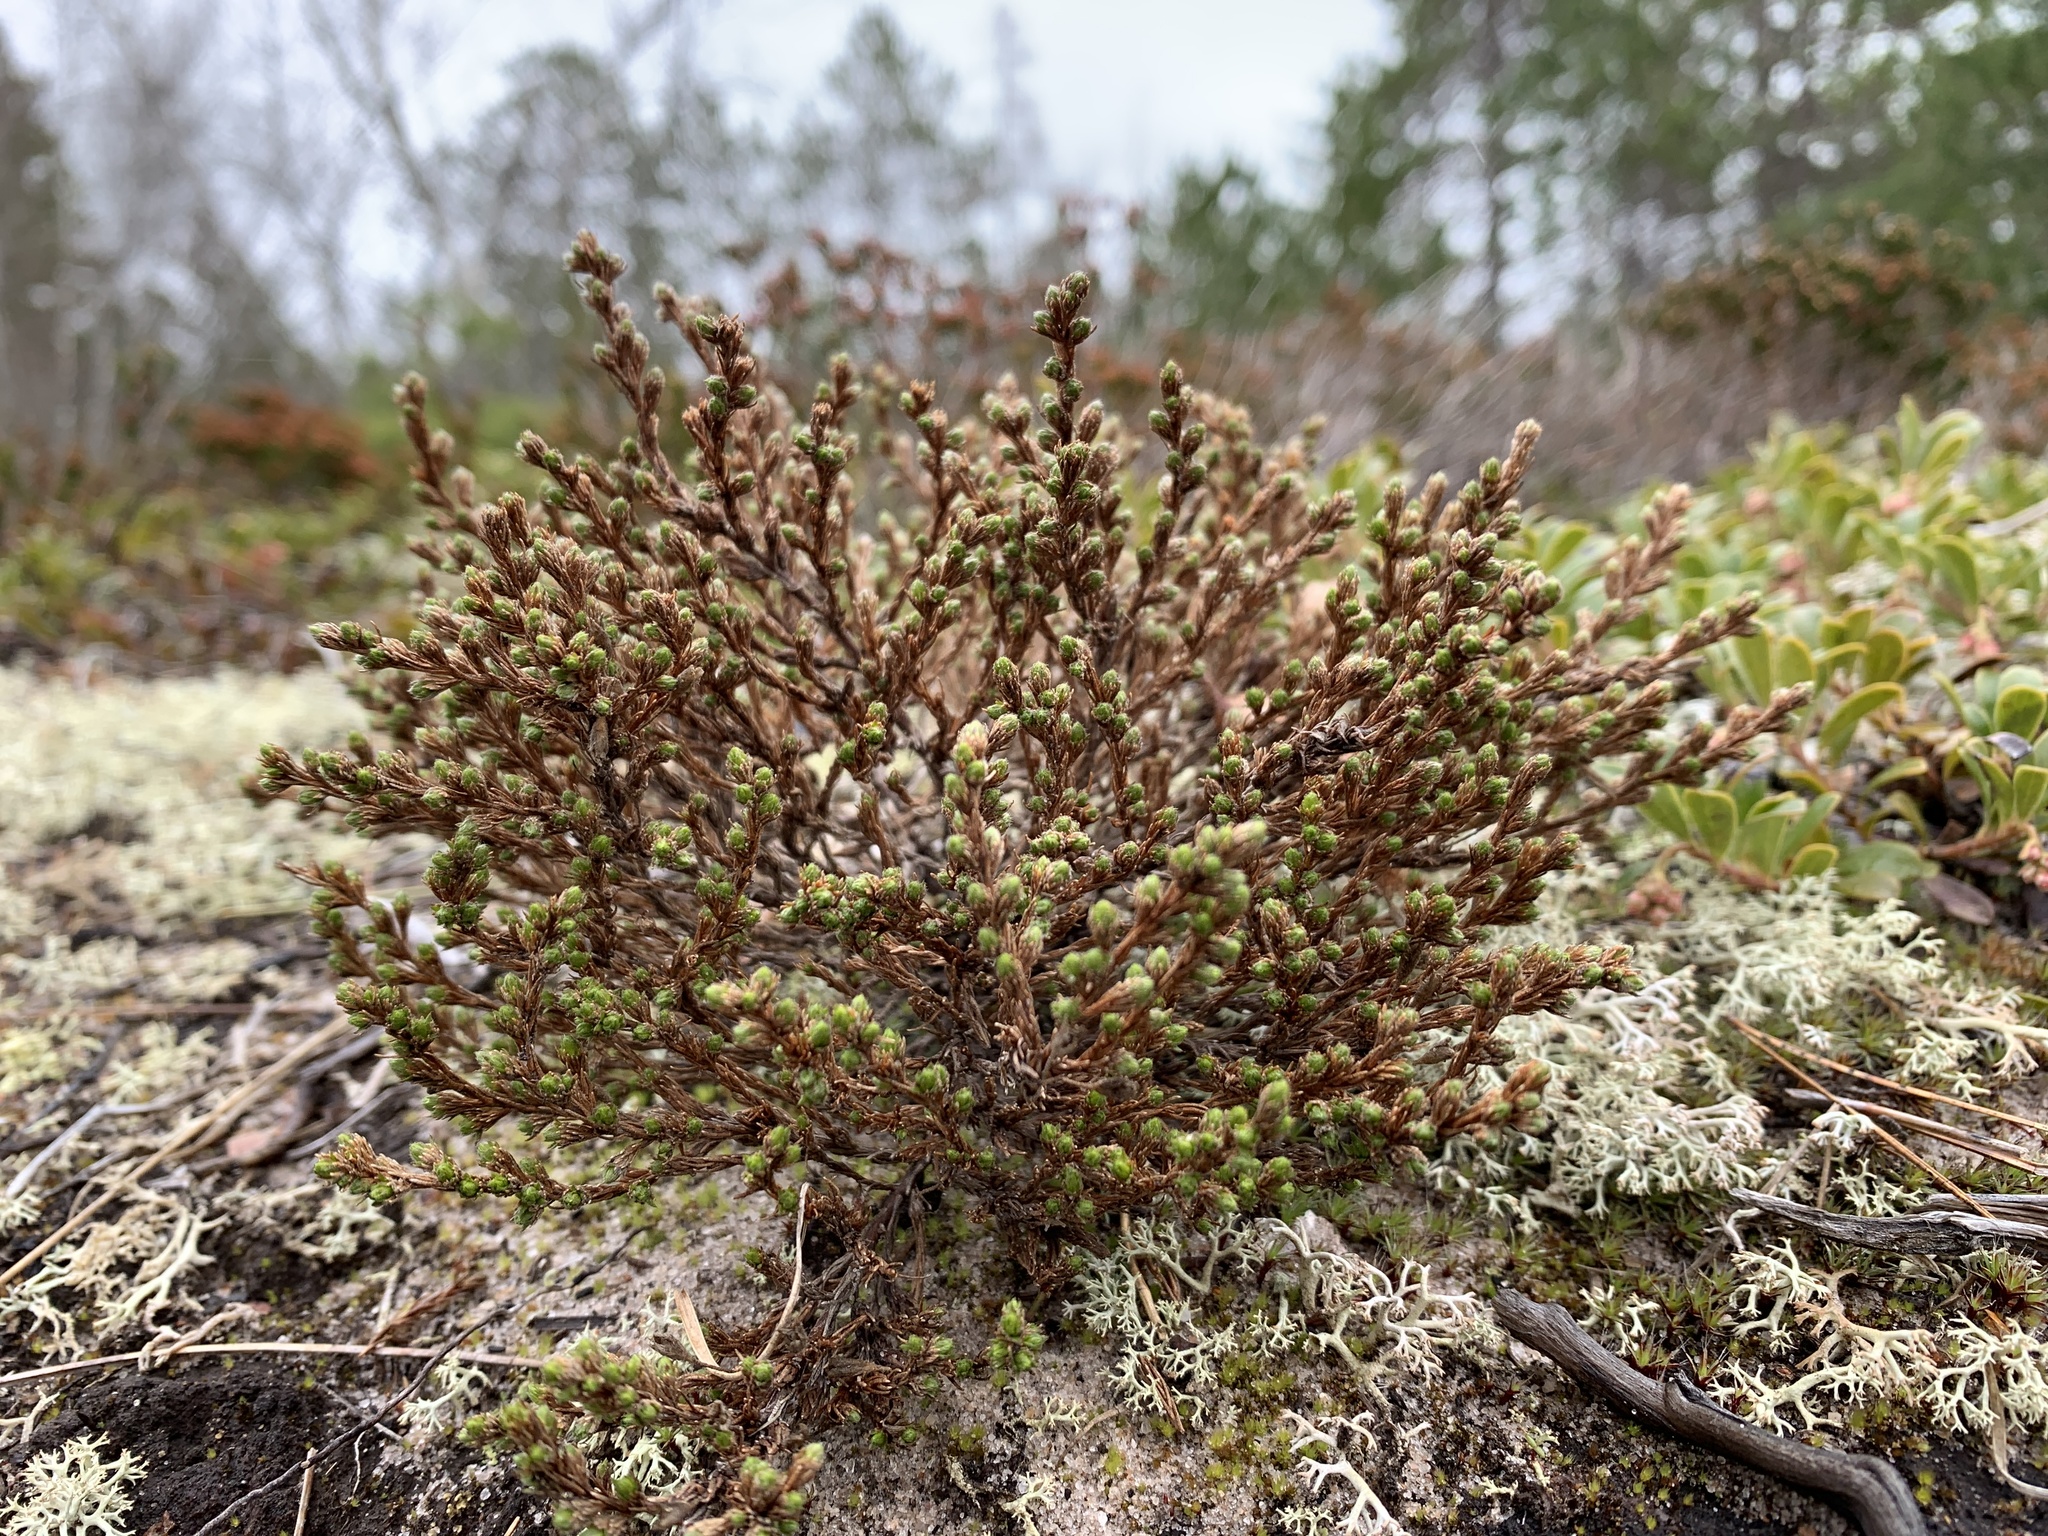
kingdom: Plantae
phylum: Tracheophyta
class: Magnoliopsida
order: Malvales
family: Cistaceae
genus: Hudsonia
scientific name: Hudsonia ericoides
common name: Golden-heather
